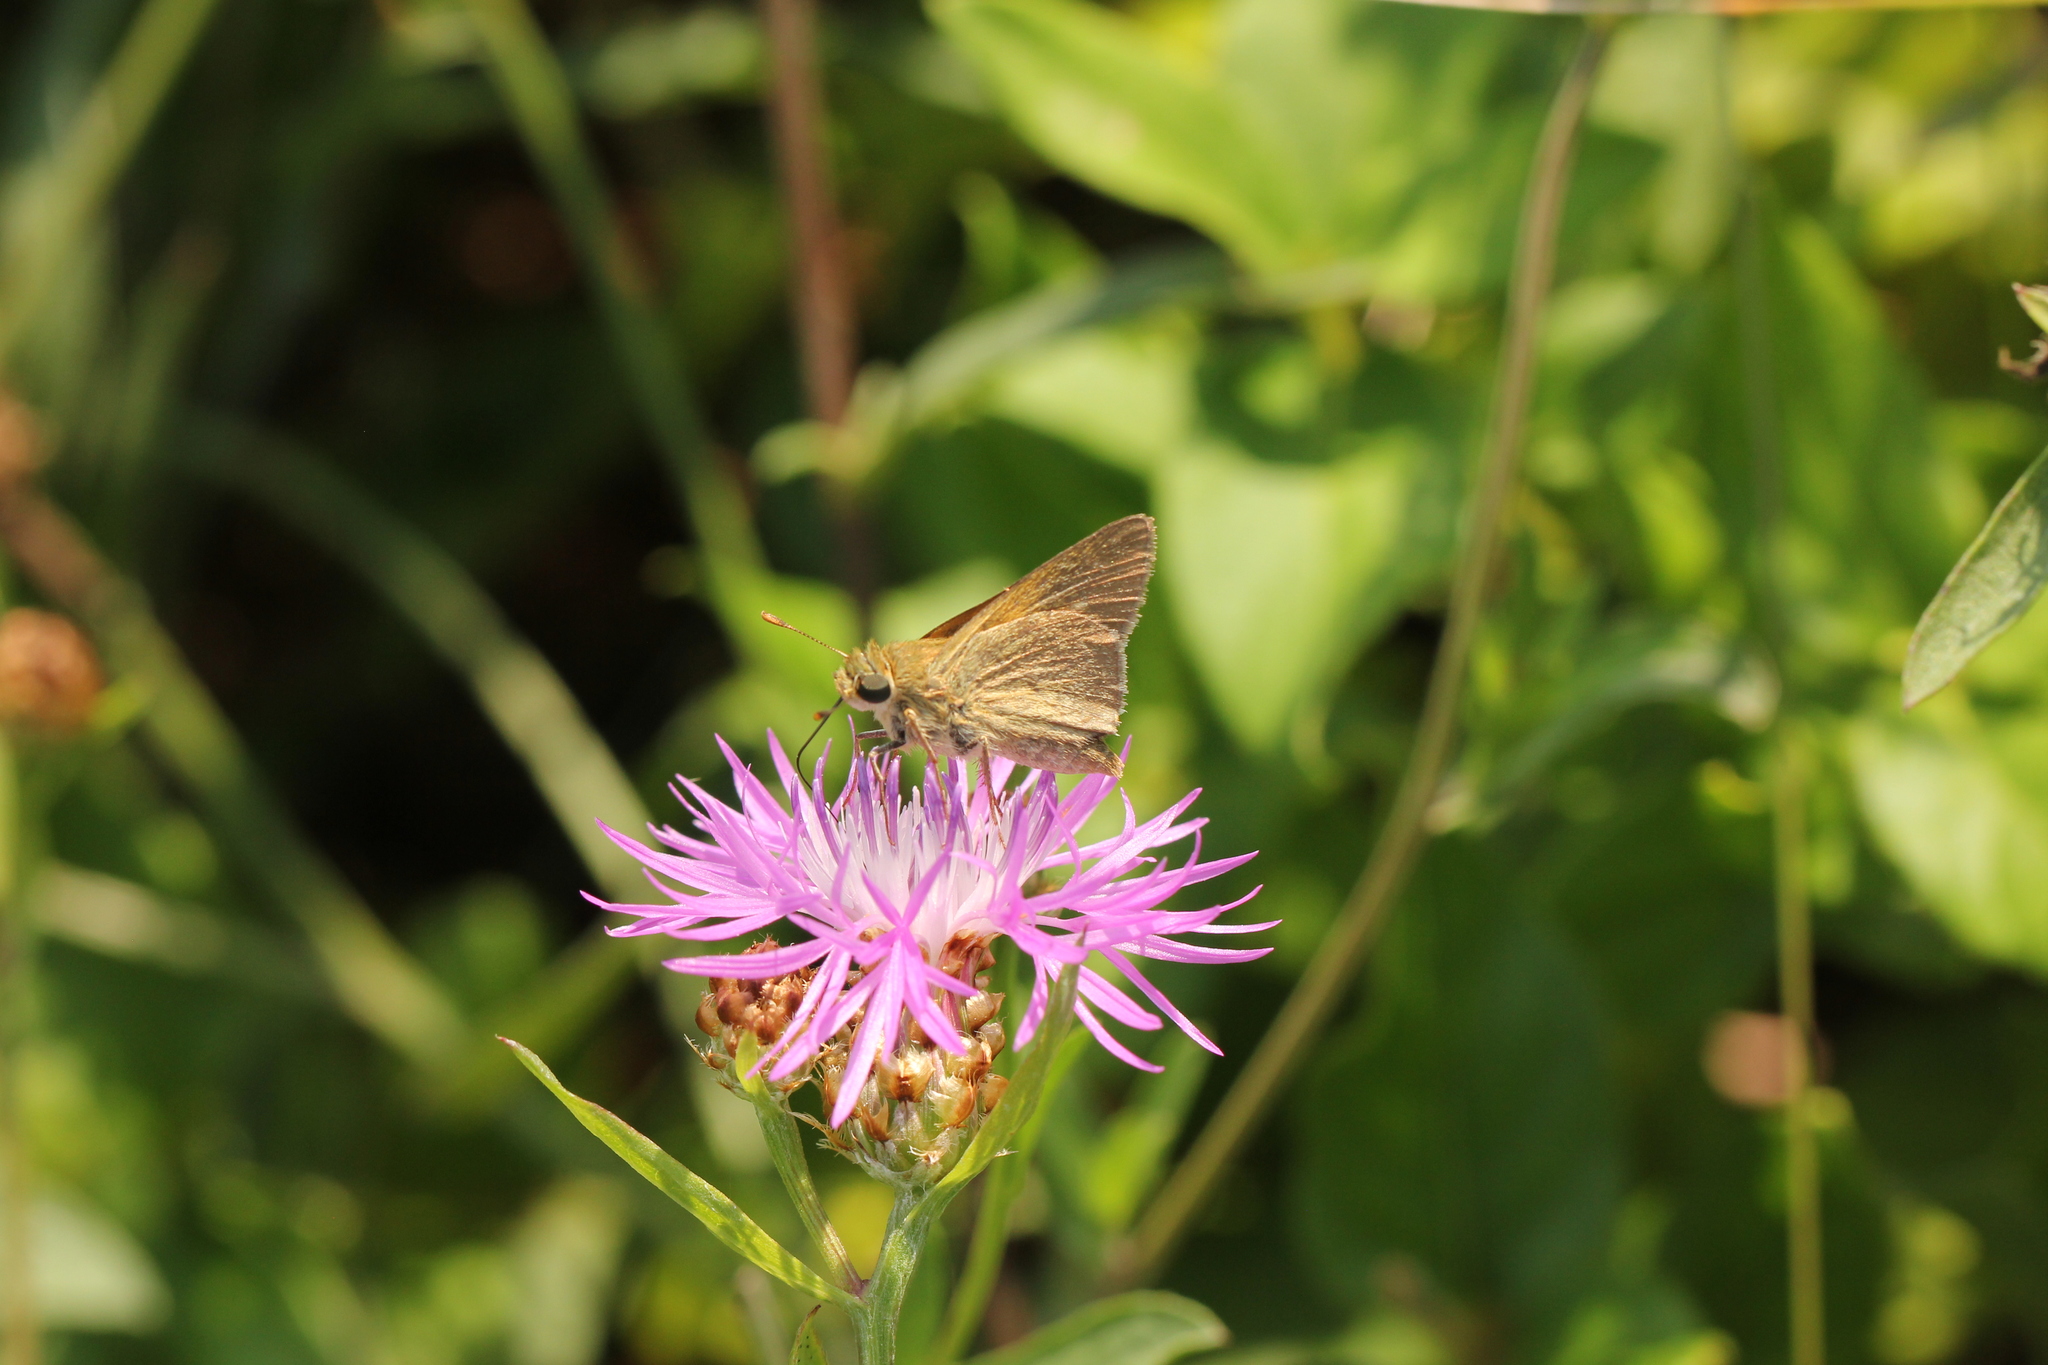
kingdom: Animalia
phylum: Arthropoda
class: Insecta
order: Lepidoptera
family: Hesperiidae
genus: Polites
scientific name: Polites themistocles
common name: Tawny-edged skipper
